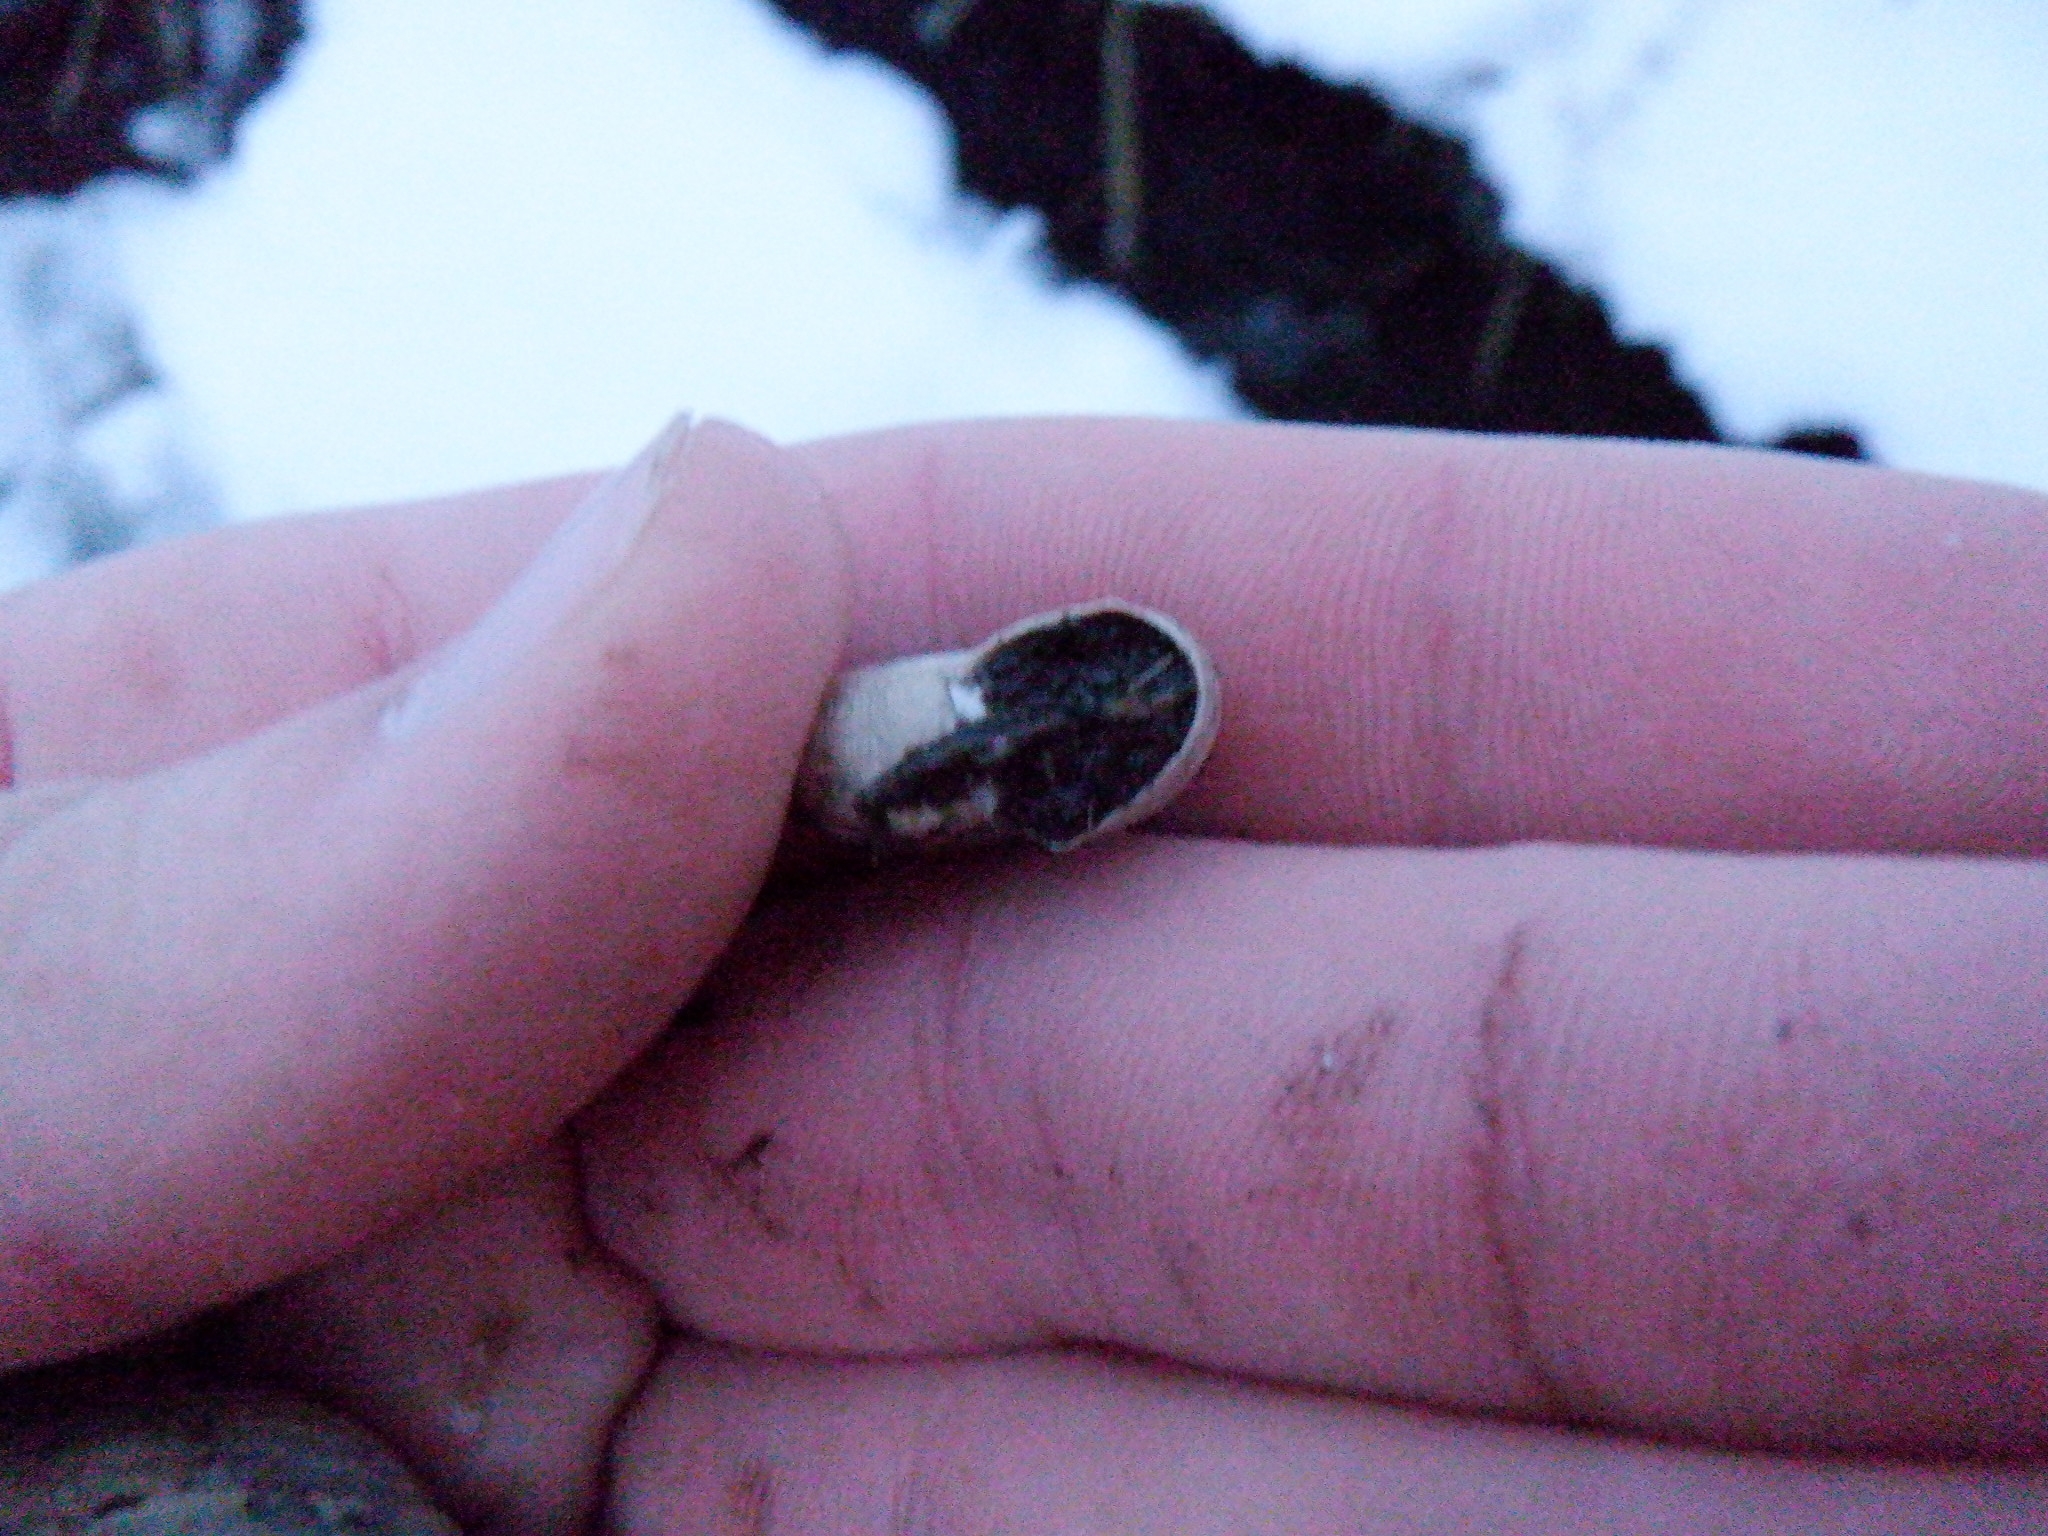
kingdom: Animalia
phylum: Mollusca
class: Gastropoda
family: Planorbidae
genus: Planorbella
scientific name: Planorbella trivolvis
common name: Marsh rams-horn
